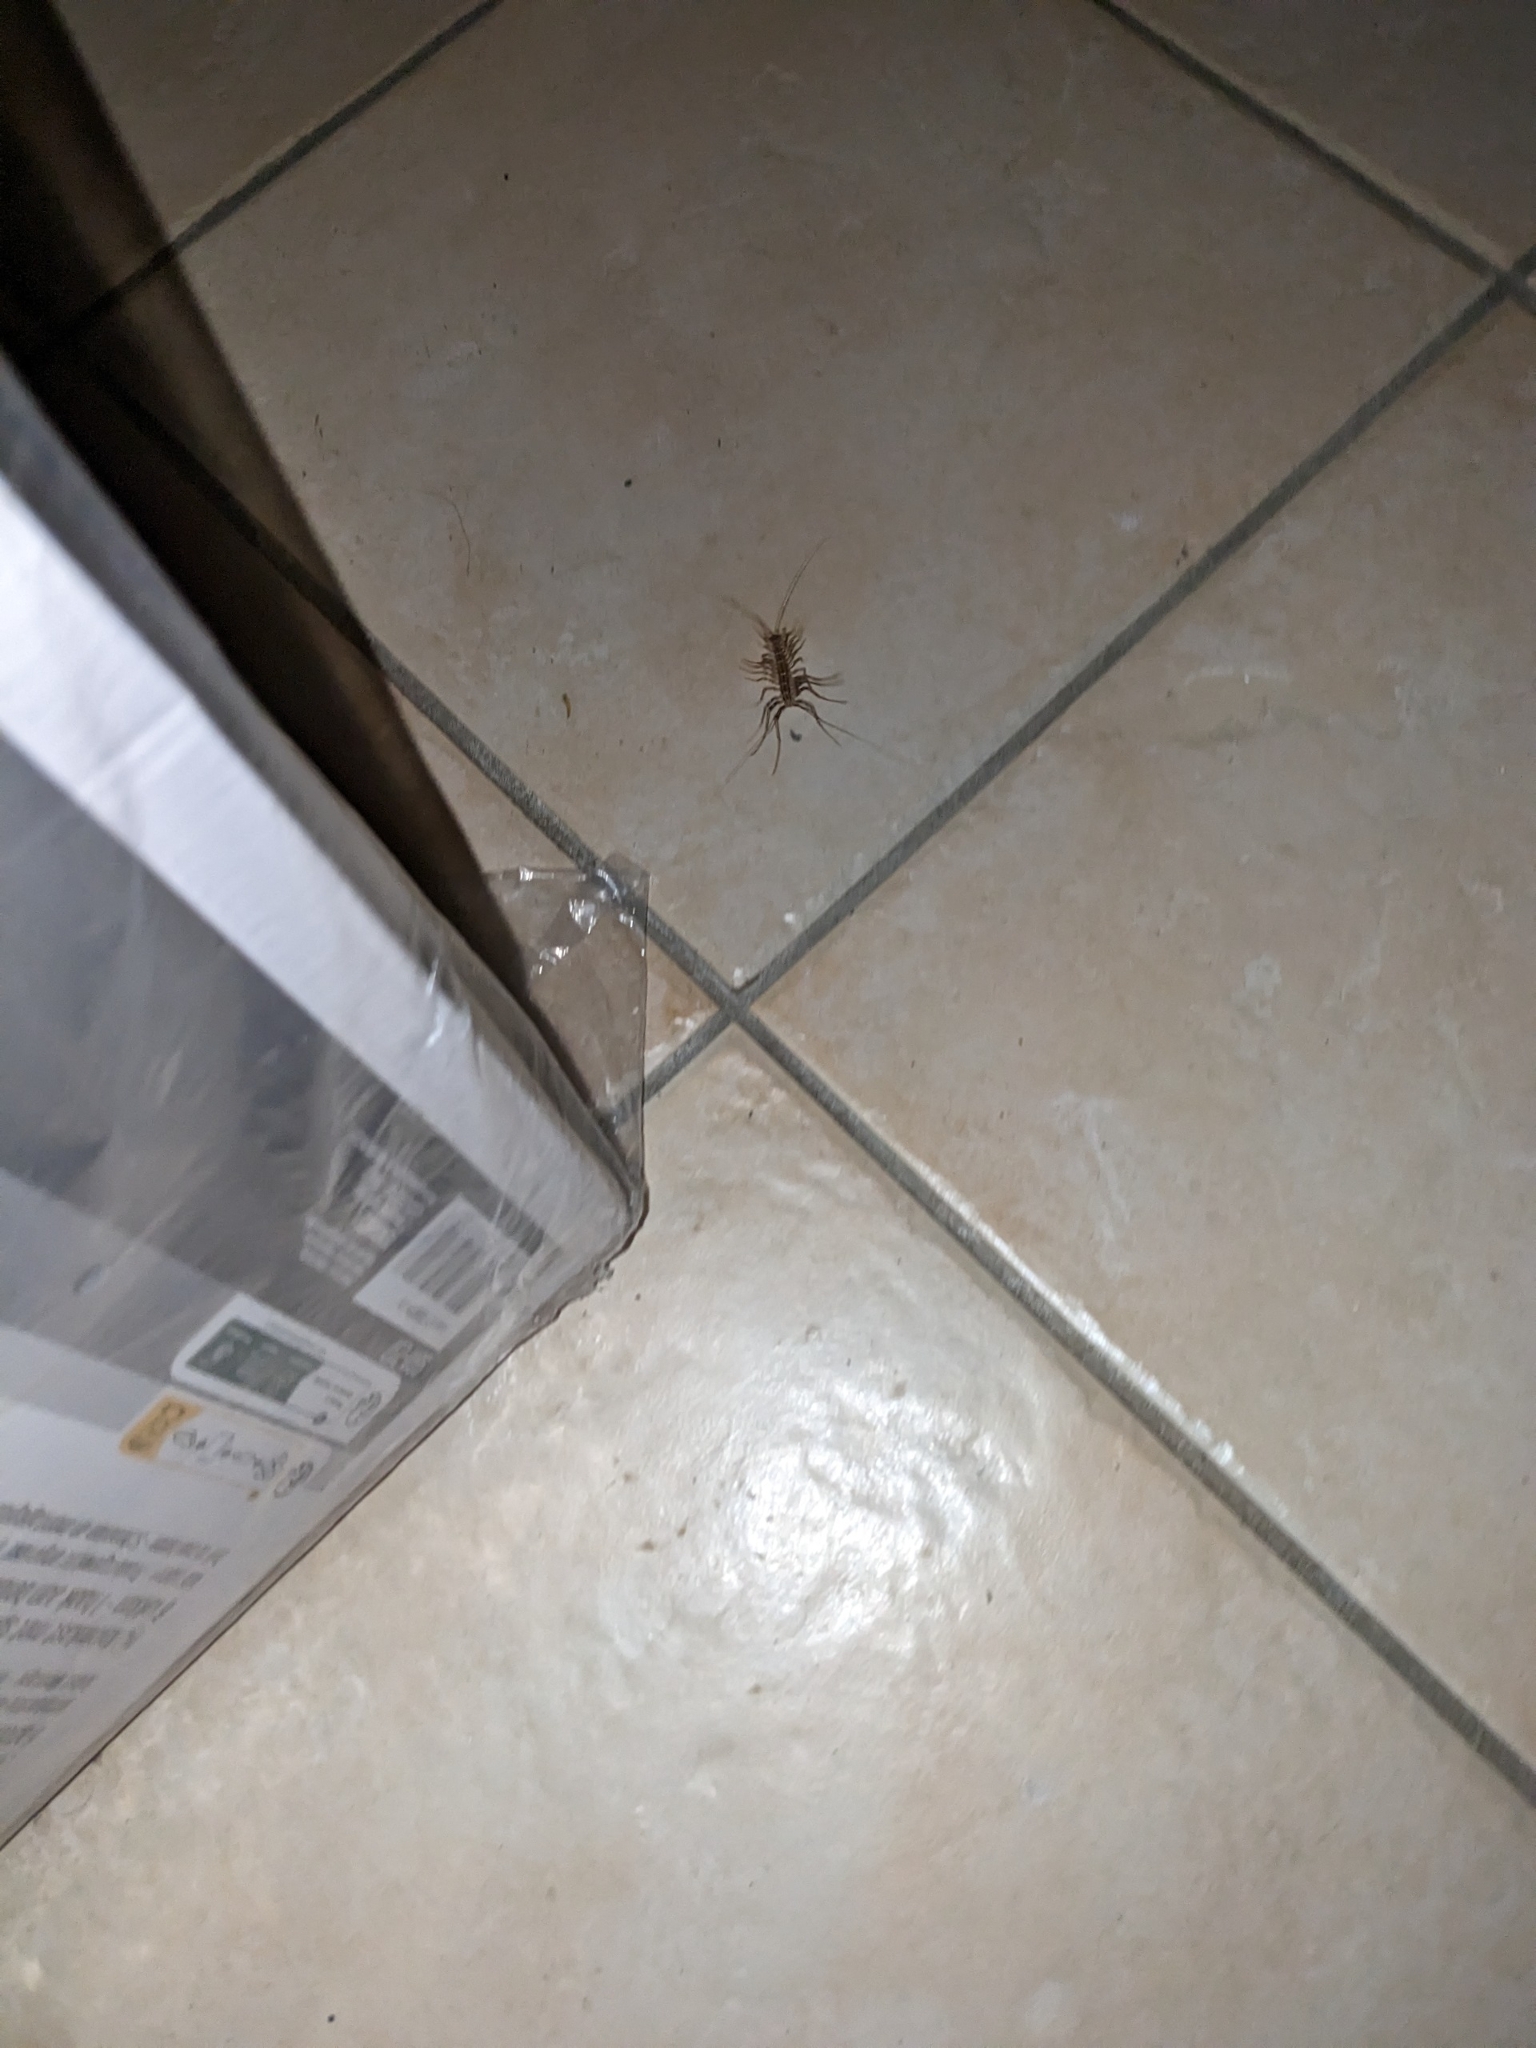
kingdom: Animalia
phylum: Arthropoda
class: Chilopoda
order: Scutigeromorpha
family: Scutigeridae
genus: Scutigera
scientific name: Scutigera coleoptrata
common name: House centipede
